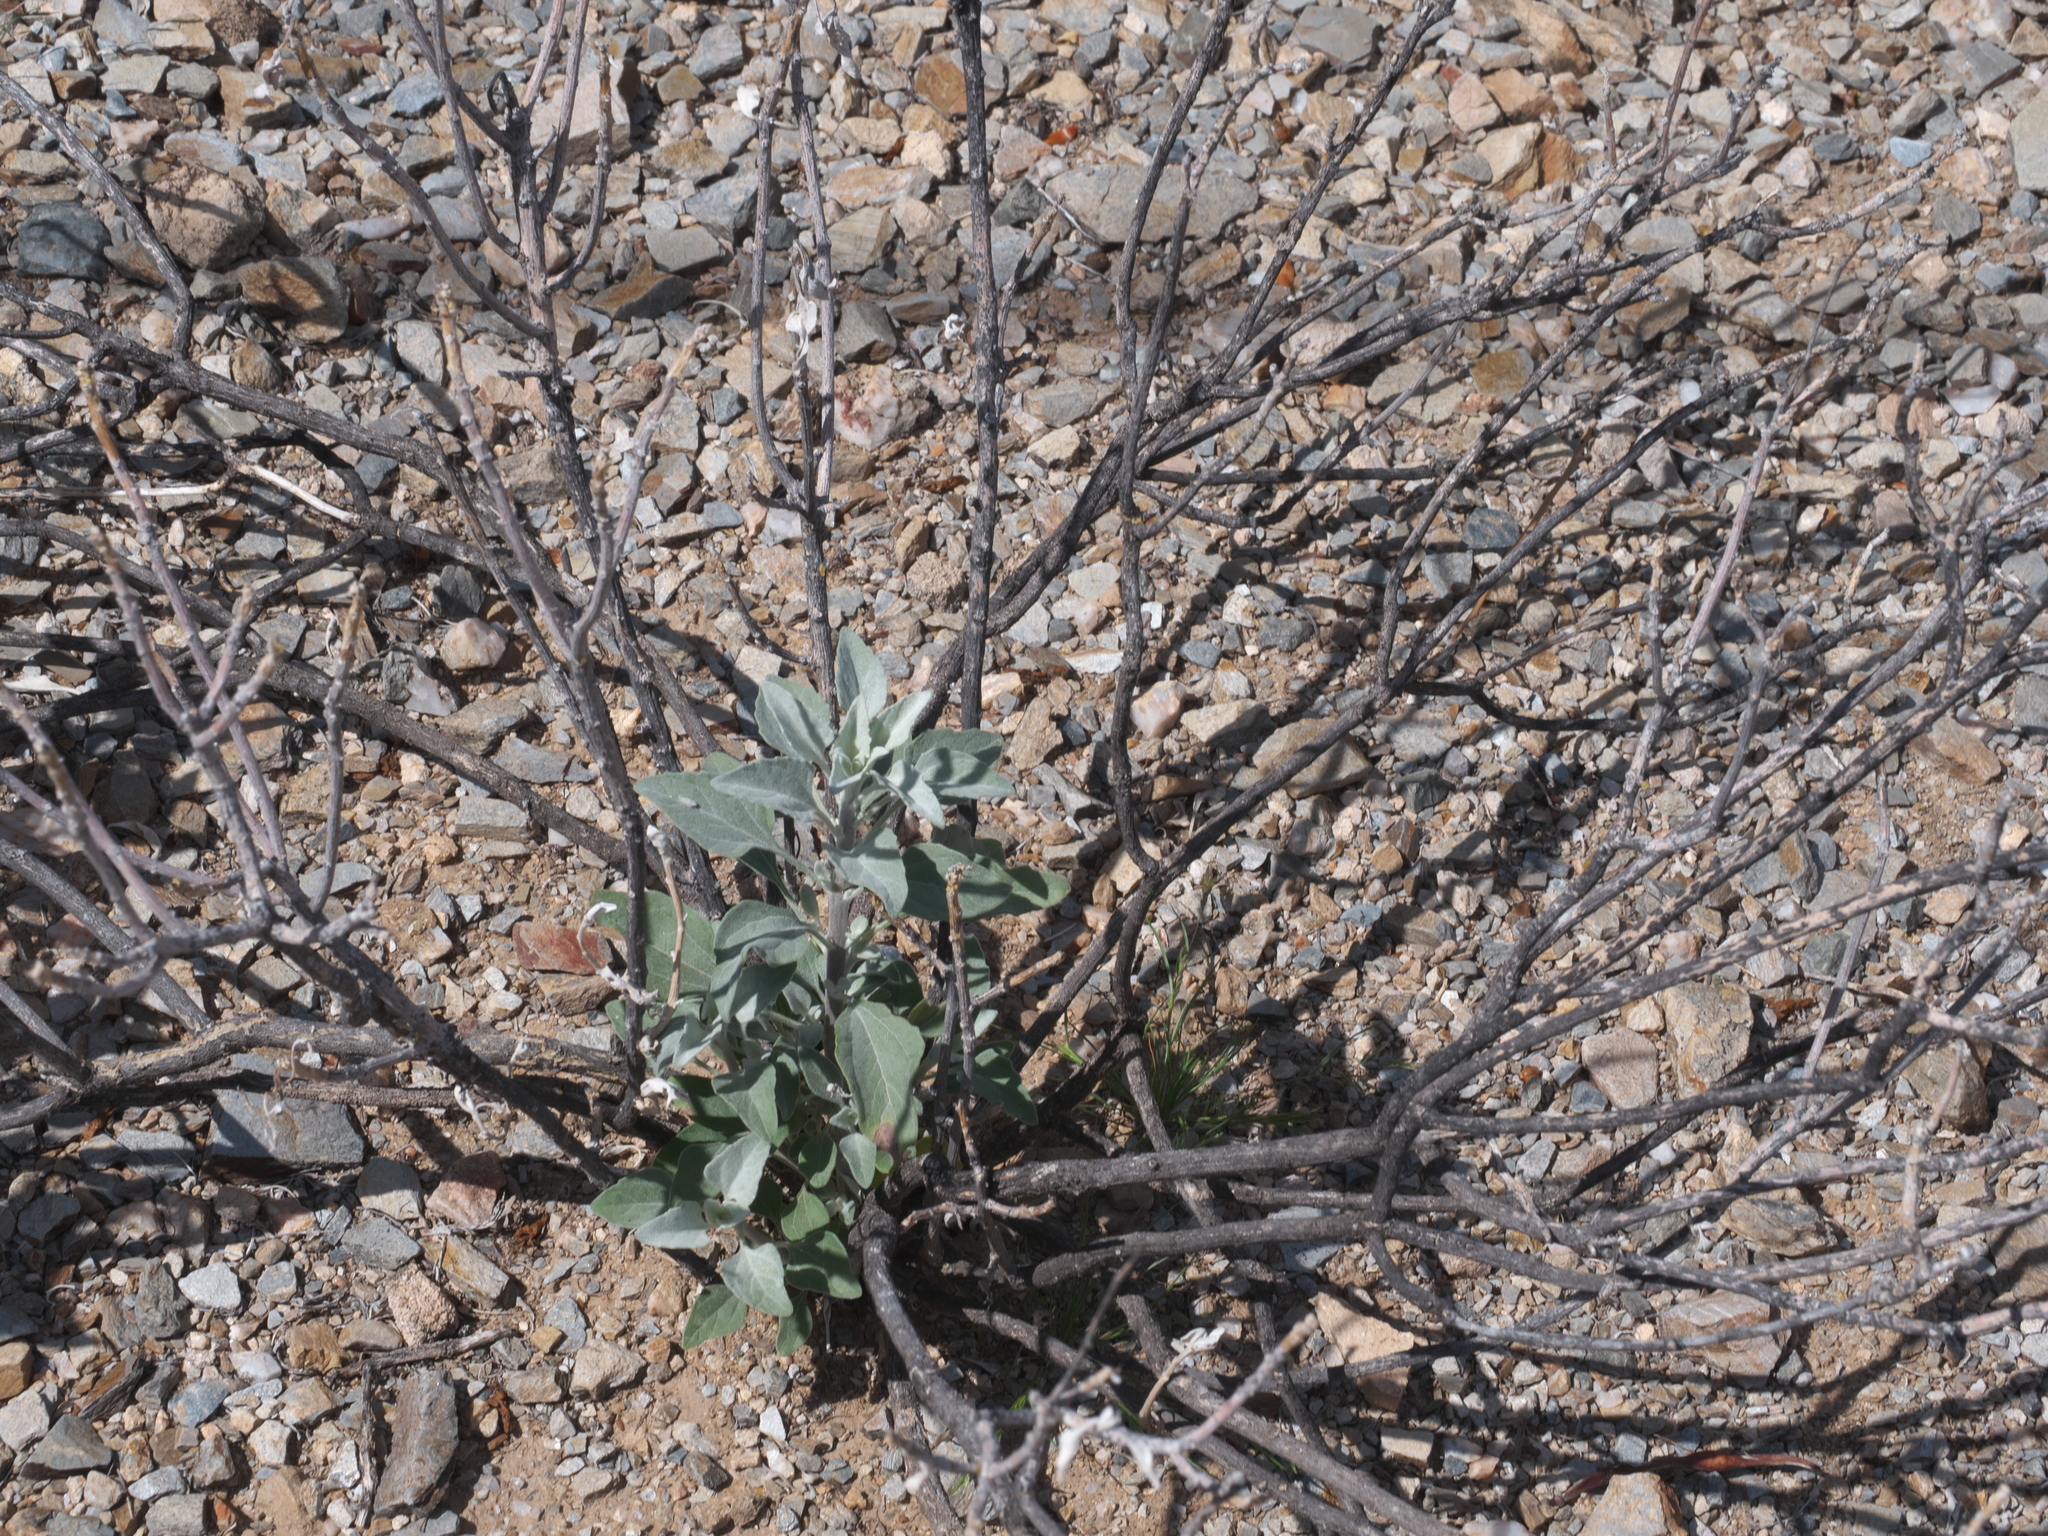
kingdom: Plantae
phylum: Tracheophyta
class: Magnoliopsida
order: Asterales
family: Asteraceae
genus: Encelia
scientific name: Encelia farinosa
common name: Brittlebush
